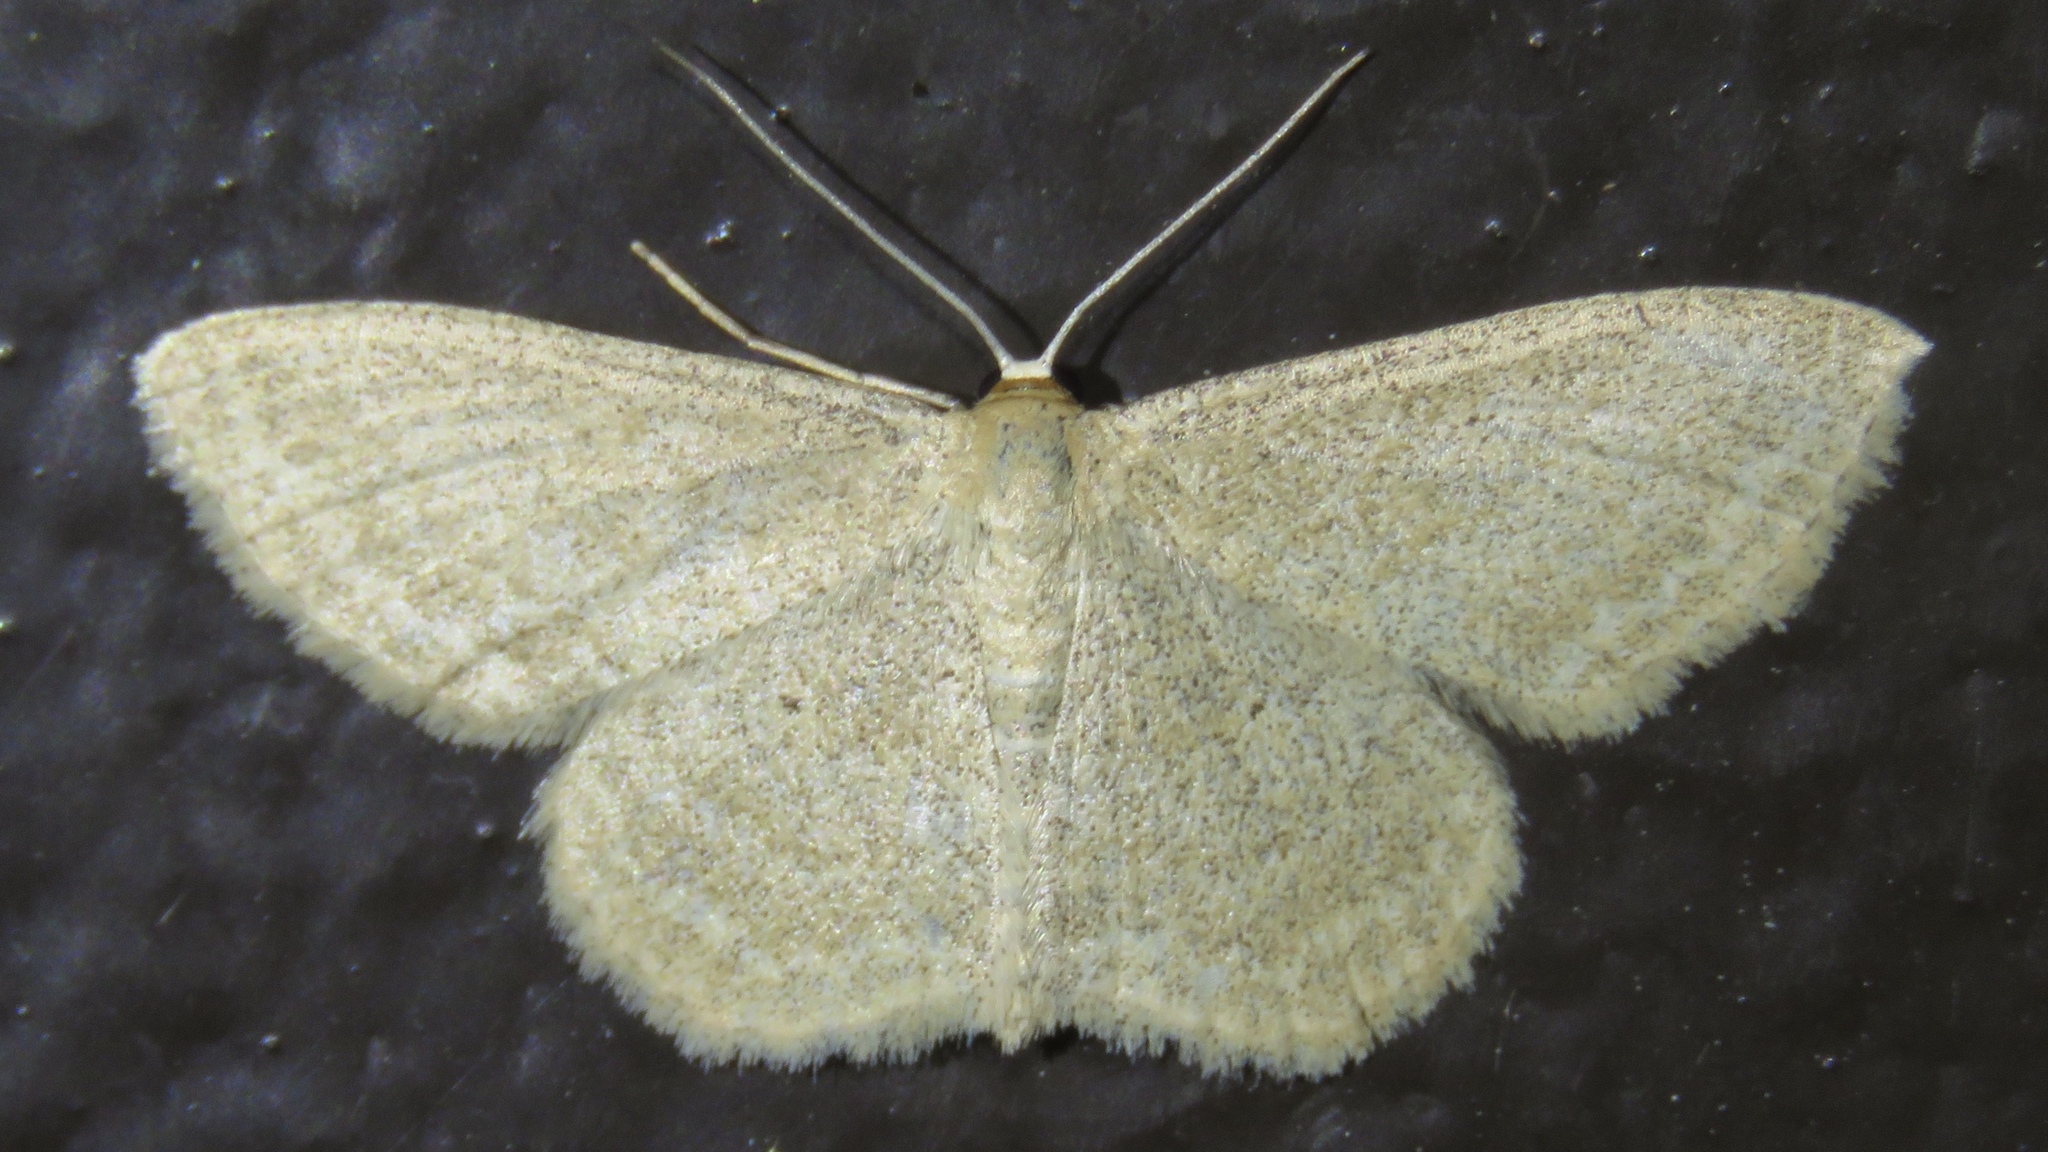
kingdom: Animalia
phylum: Arthropoda
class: Insecta
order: Lepidoptera
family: Geometridae
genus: Scopula
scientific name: Scopula inductata
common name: Soft-lined wave
